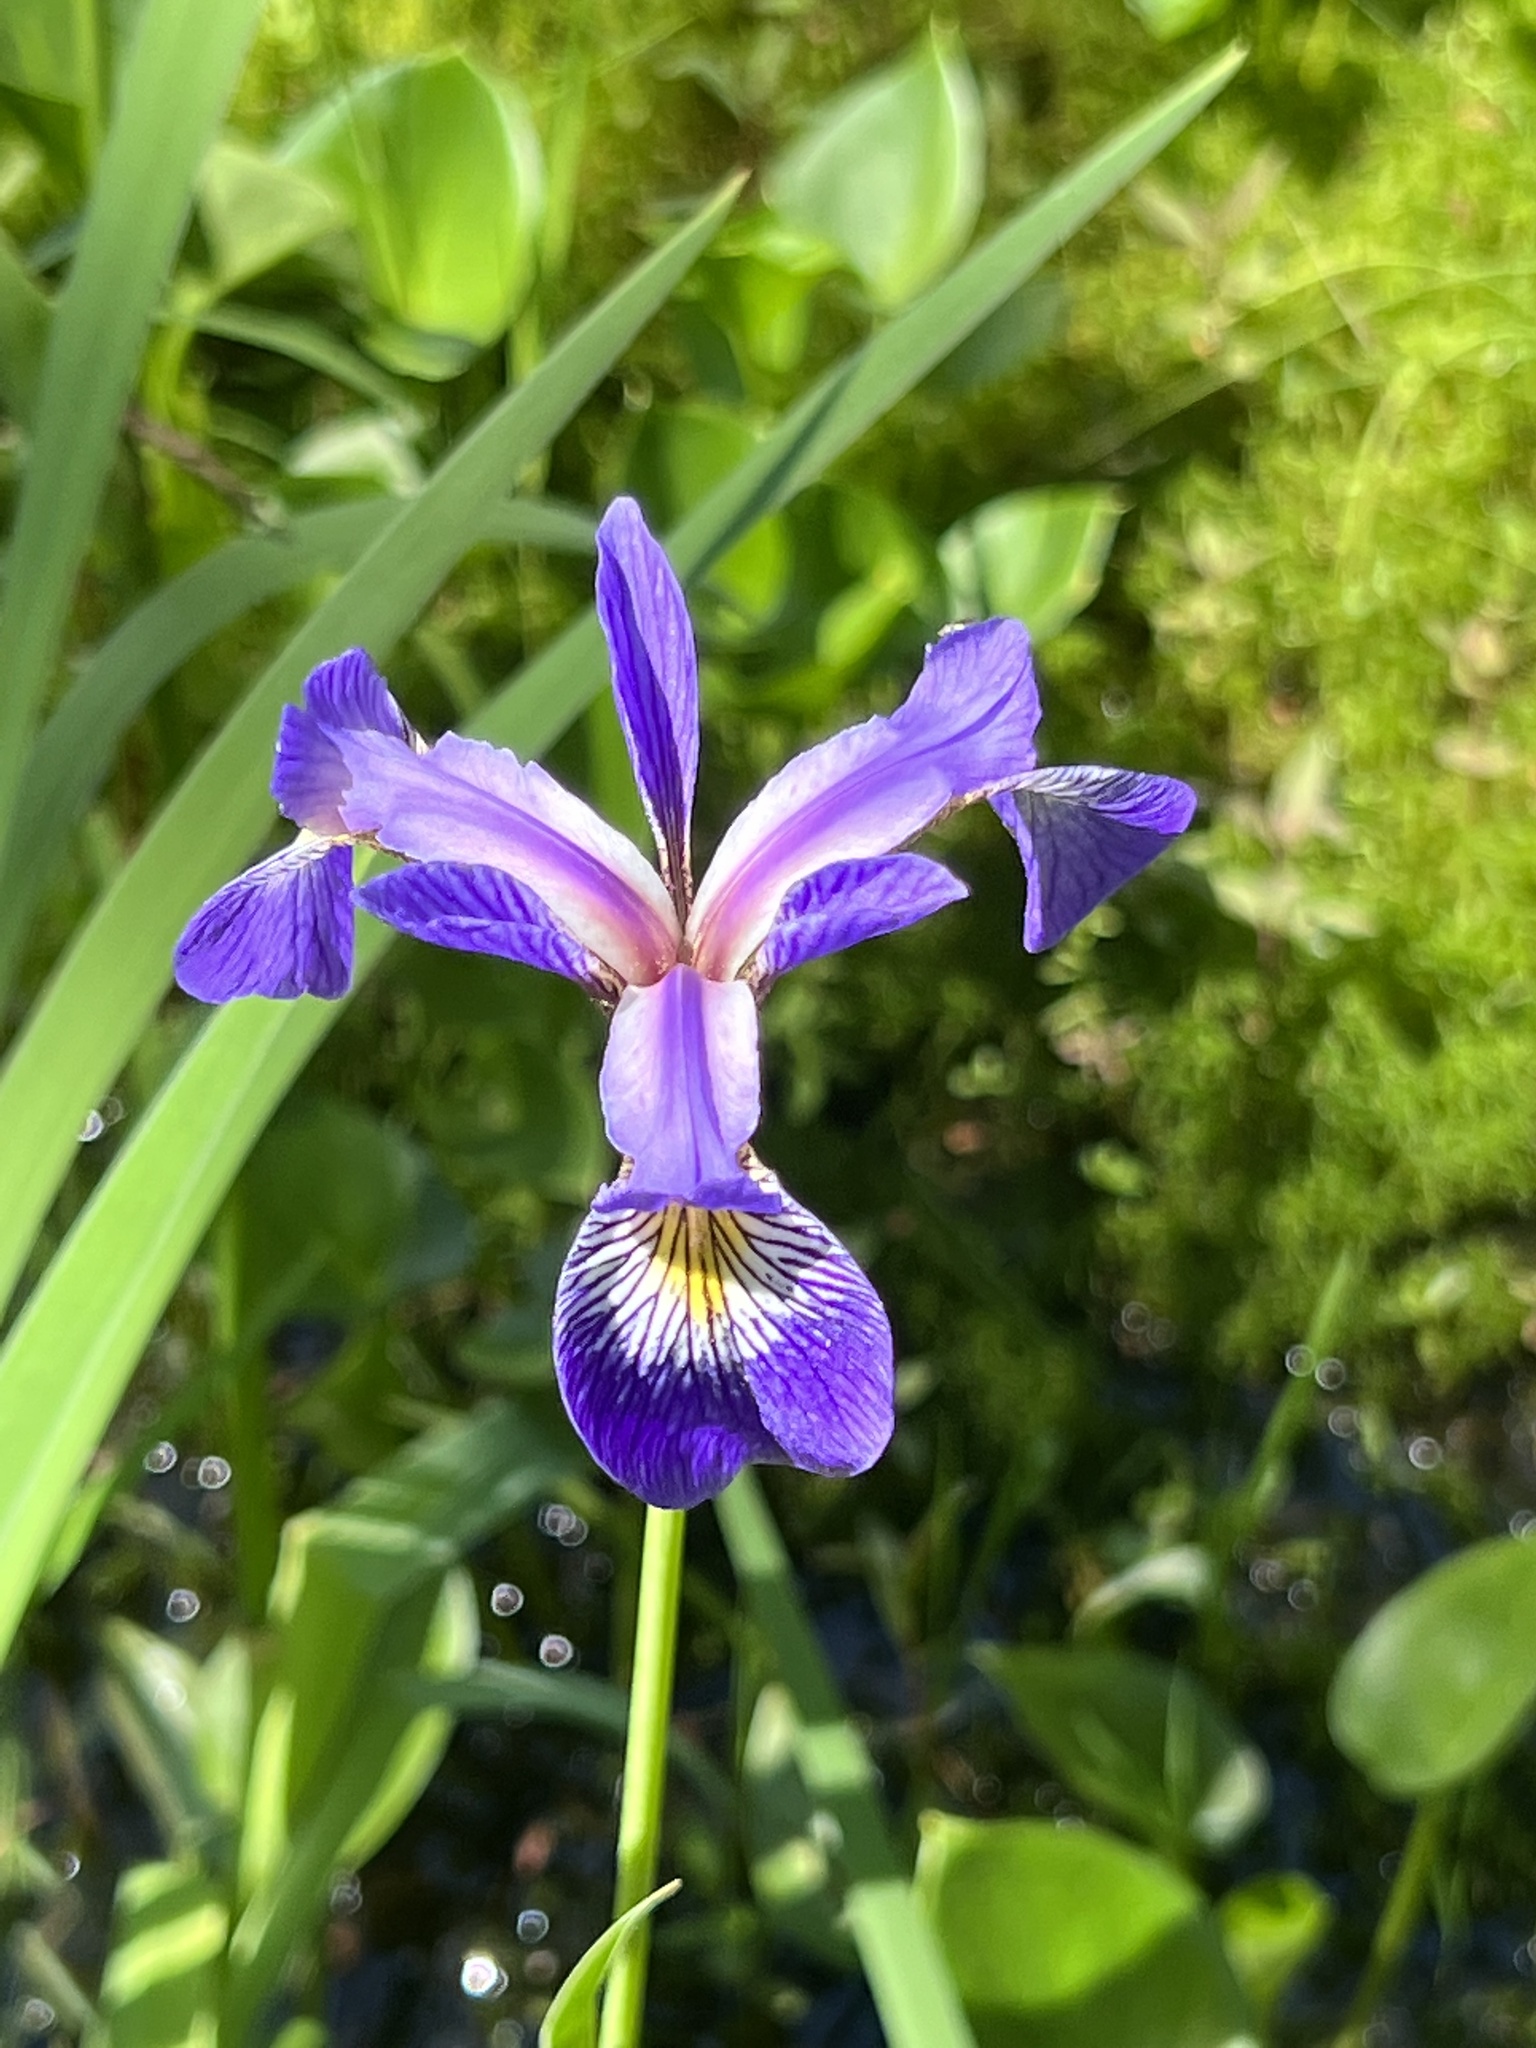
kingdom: Plantae
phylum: Tracheophyta
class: Liliopsida
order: Asparagales
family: Iridaceae
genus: Iris
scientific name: Iris versicolor
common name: Purple iris
